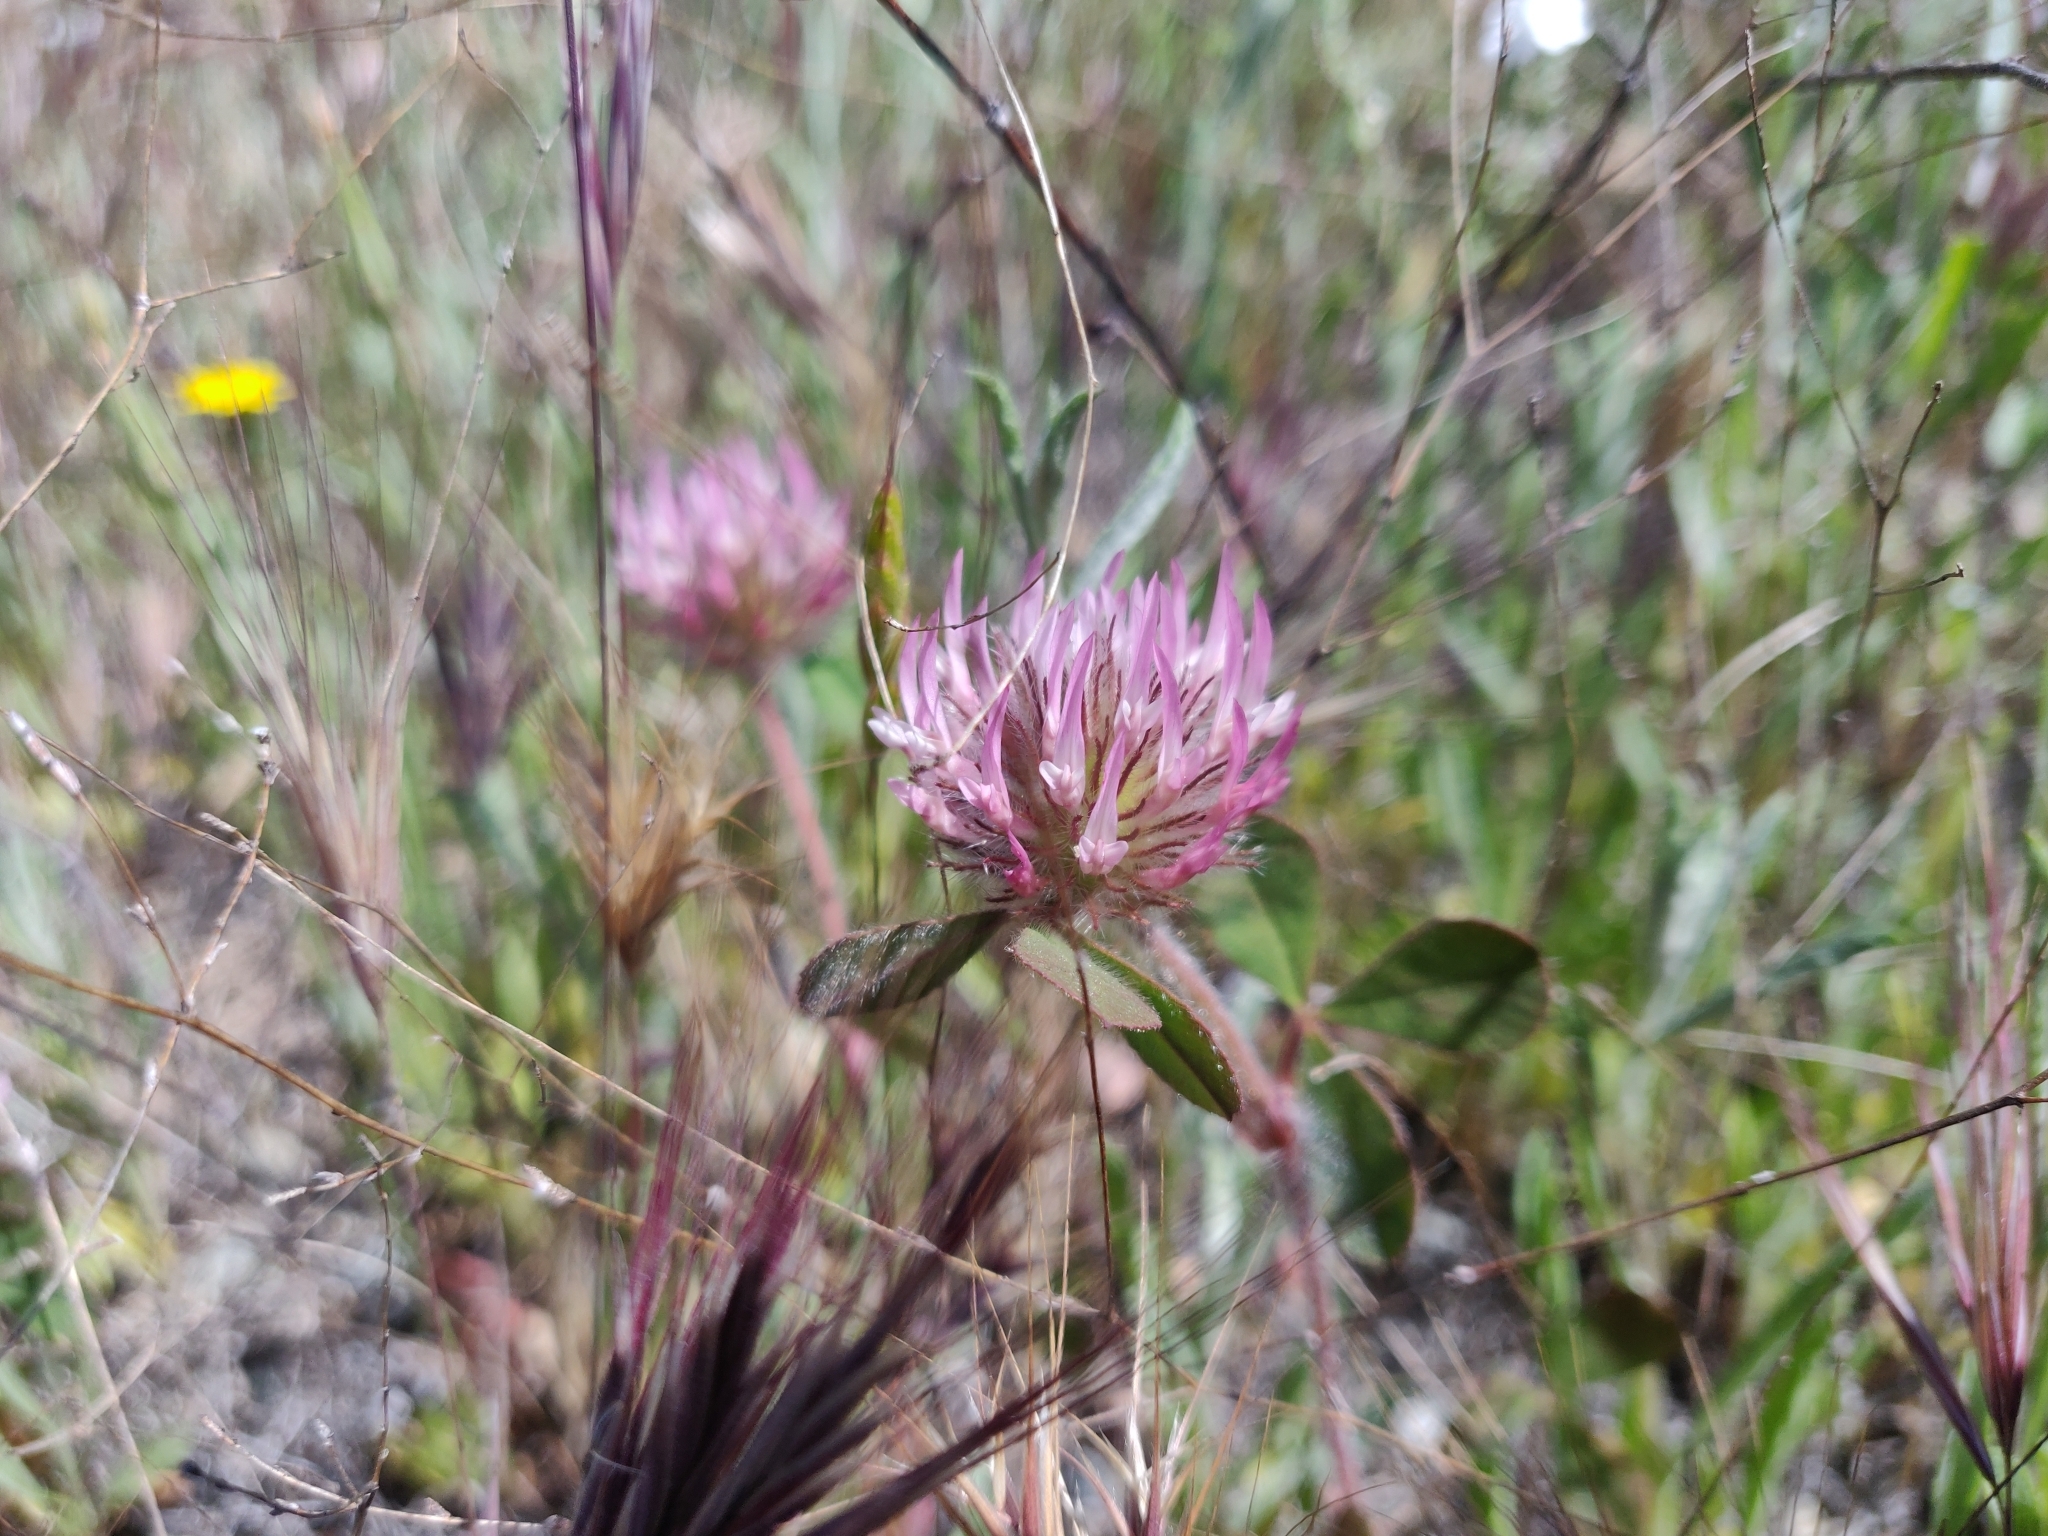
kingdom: Plantae
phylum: Tracheophyta
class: Magnoliopsida
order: Fabales
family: Fabaceae
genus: Trifolium
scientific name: Trifolium hirtum
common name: Rose clover
